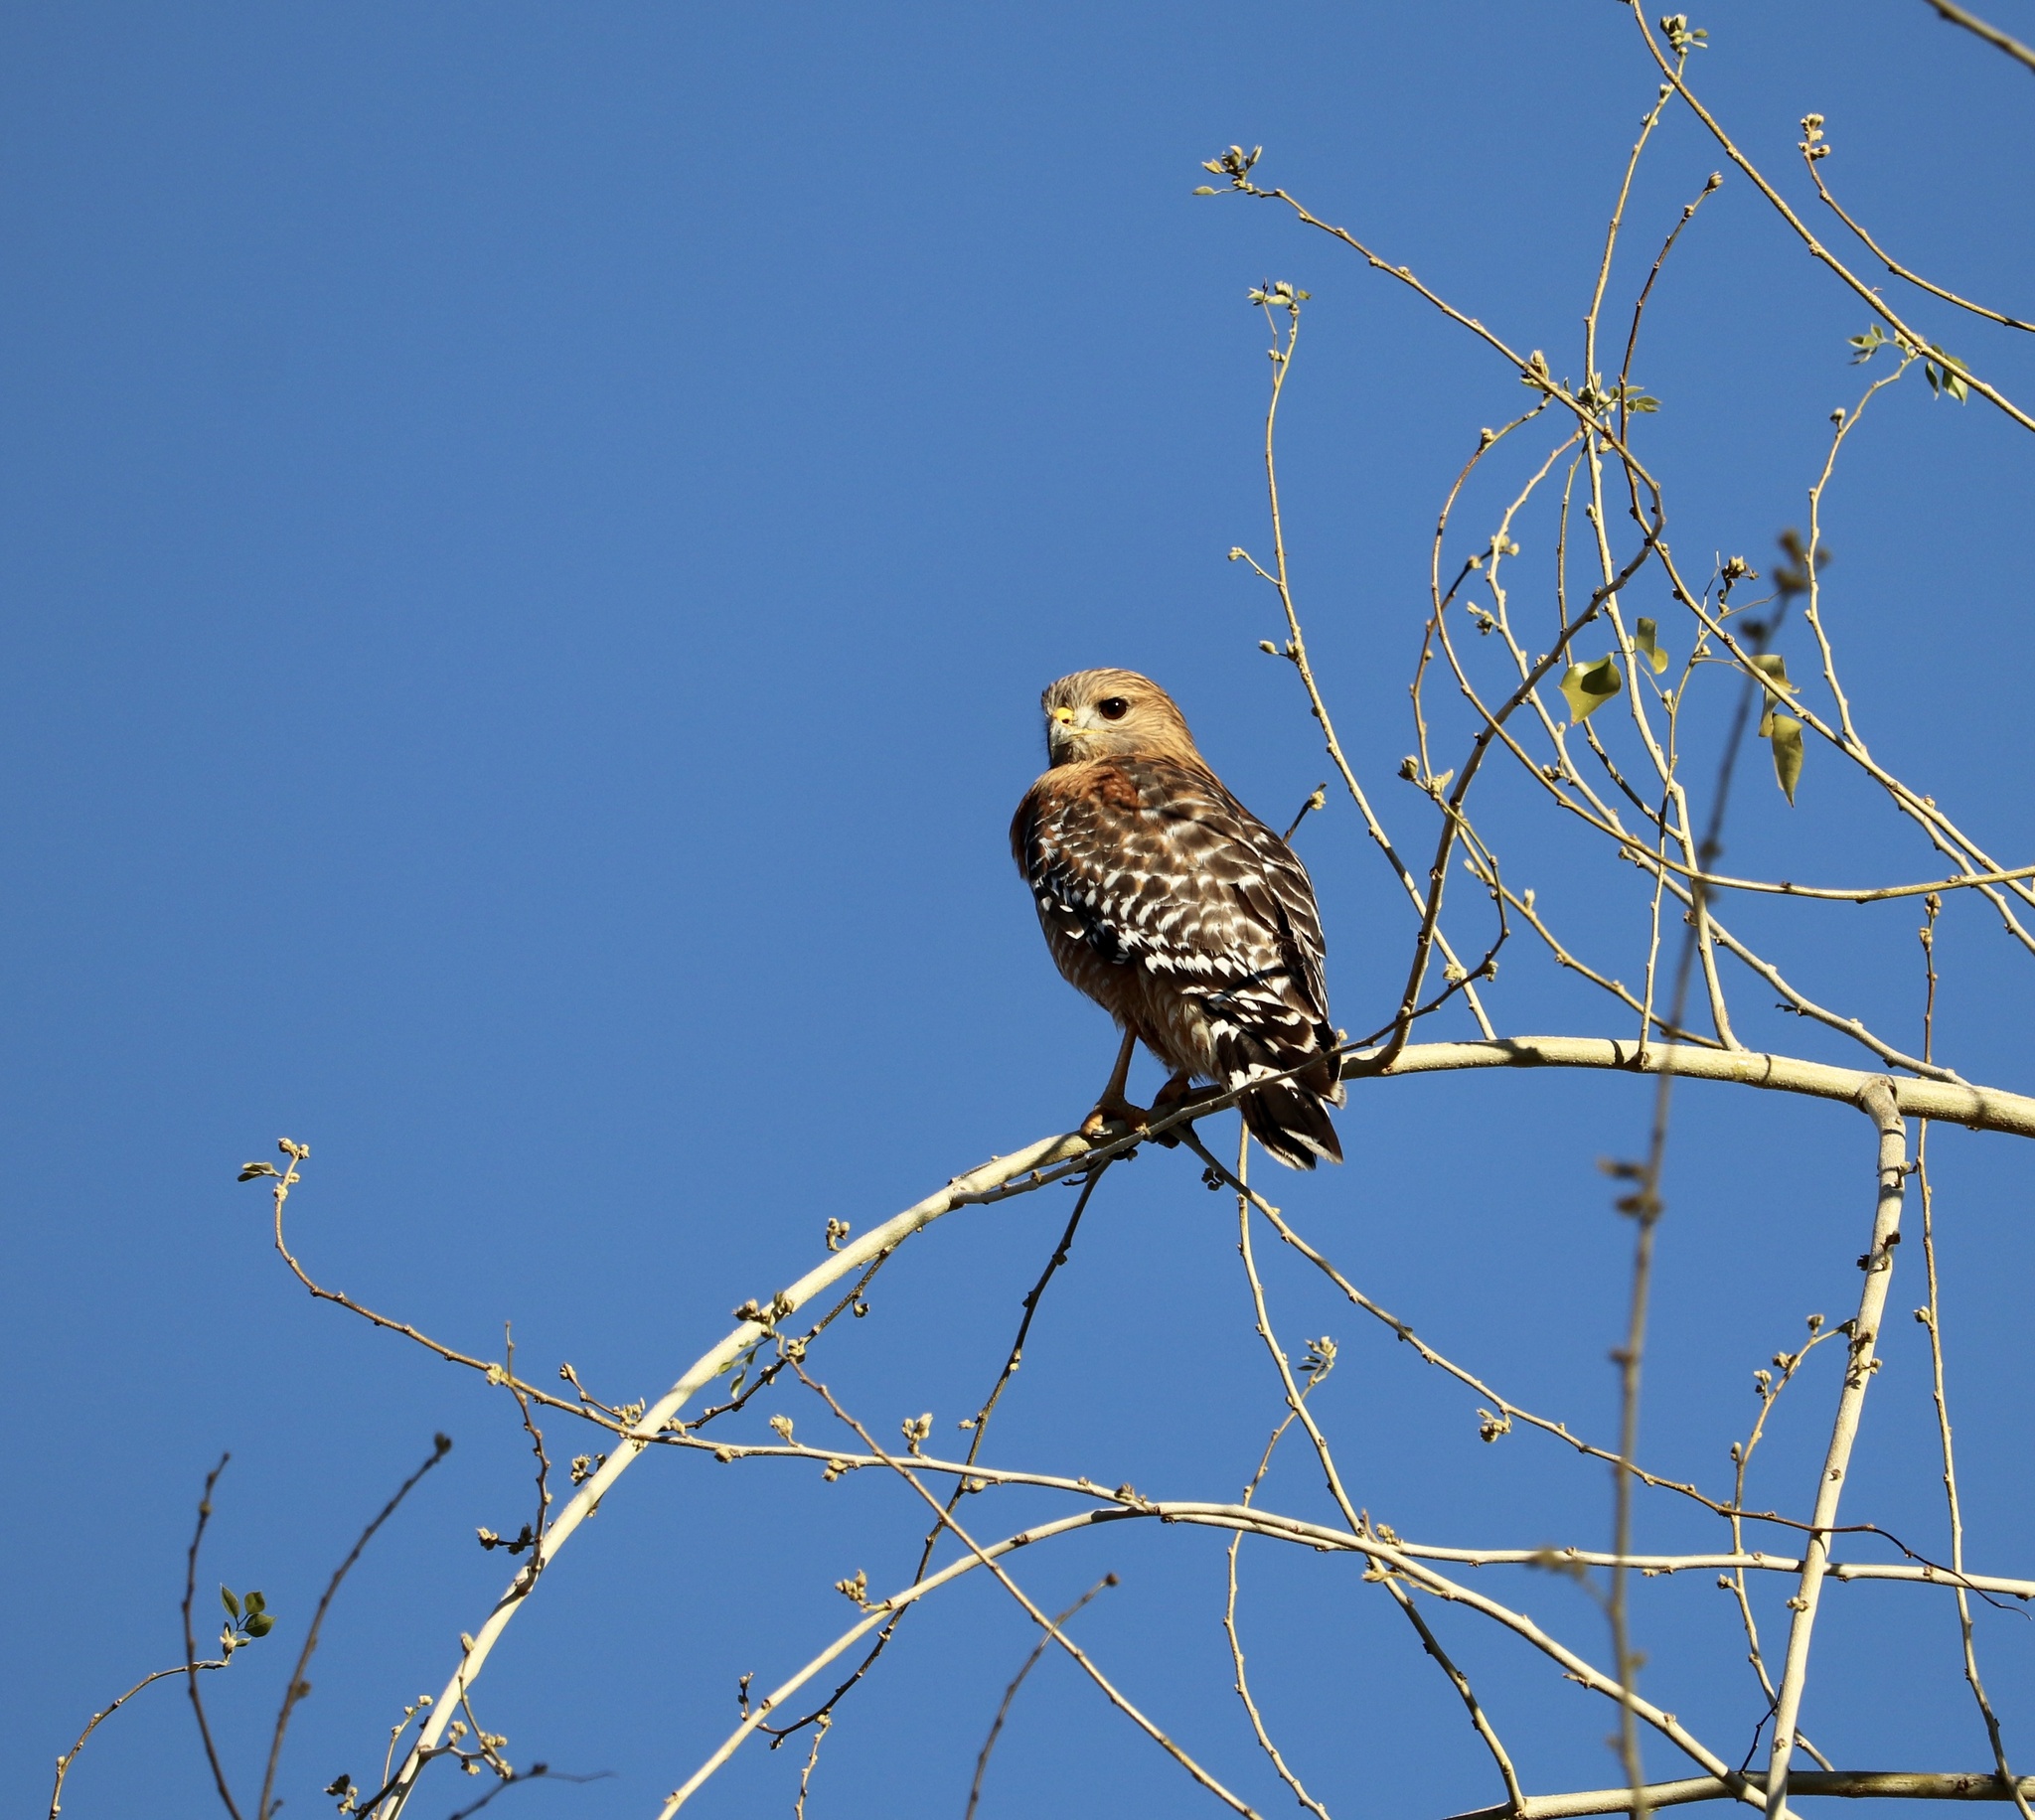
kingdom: Animalia
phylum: Chordata
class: Aves
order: Accipitriformes
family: Accipitridae
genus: Buteo
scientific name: Buteo lineatus
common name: Red-shouldered hawk
